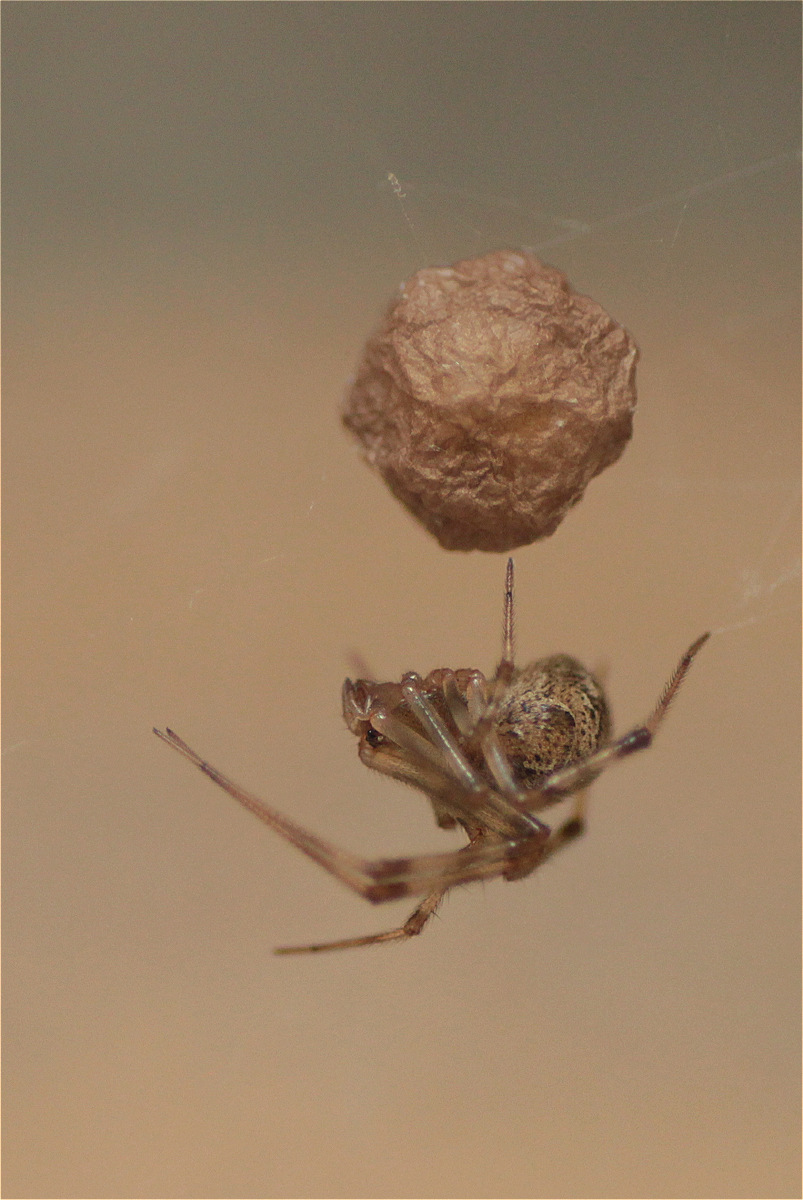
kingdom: Animalia
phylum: Arthropoda
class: Arachnida
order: Araneae
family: Theridiidae
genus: Parasteatoda
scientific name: Parasteatoda tepidariorum
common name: Common house spider
